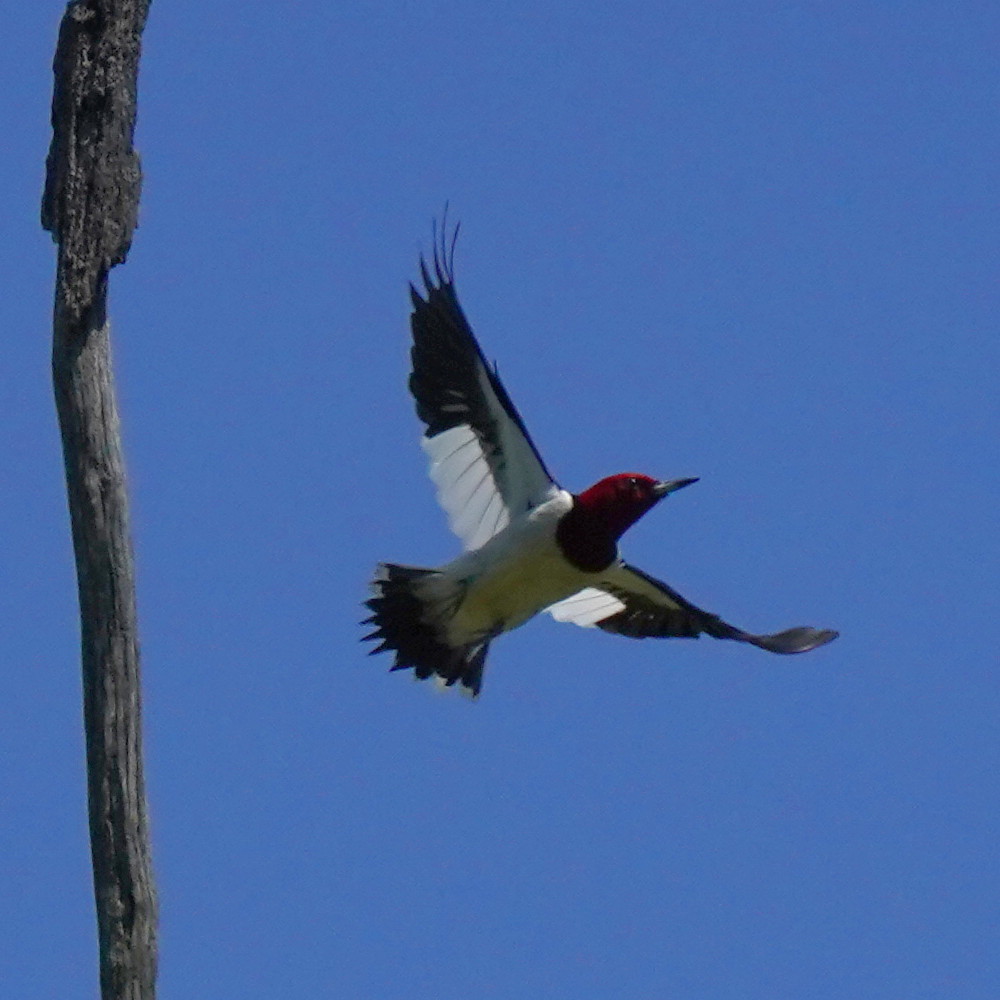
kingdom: Animalia
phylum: Chordata
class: Aves
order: Piciformes
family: Picidae
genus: Melanerpes
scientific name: Melanerpes erythrocephalus
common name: Red-headed woodpecker
